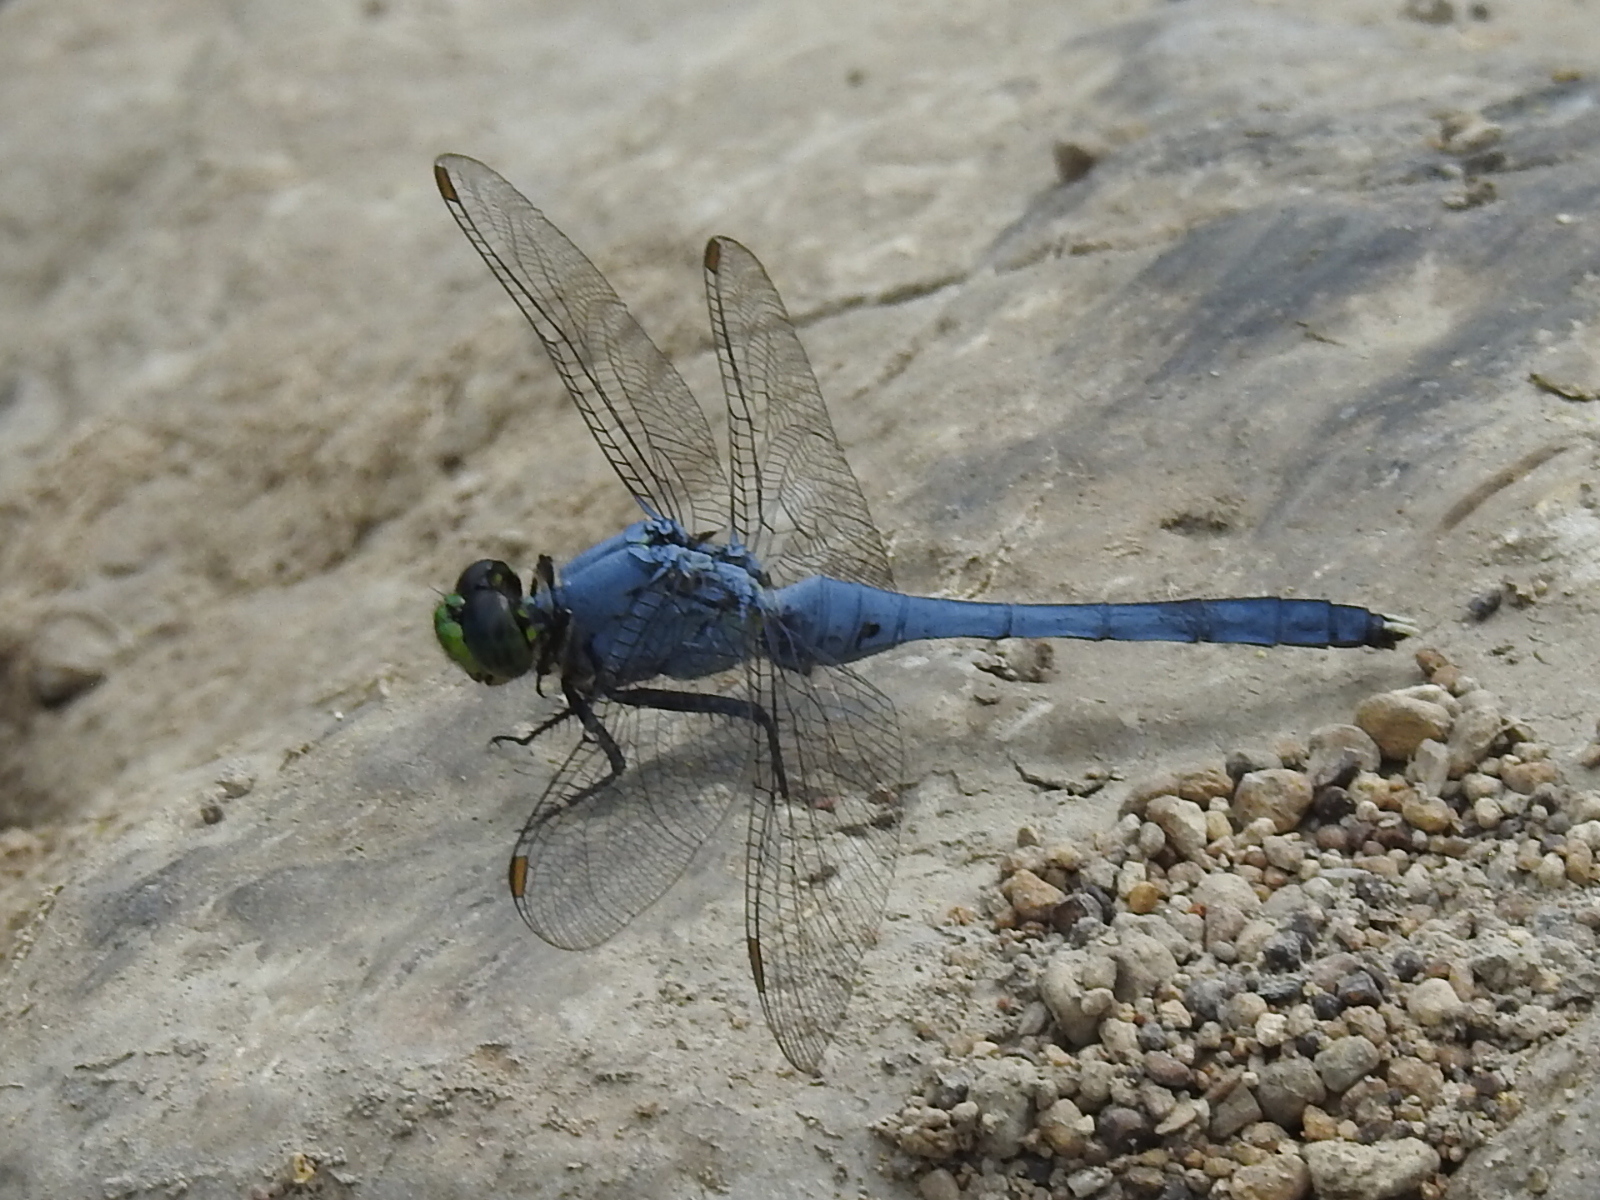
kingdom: Animalia
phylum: Arthropoda
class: Insecta
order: Odonata
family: Libellulidae
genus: Erythemis
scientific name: Erythemis simplicicollis
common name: Eastern pondhawk
